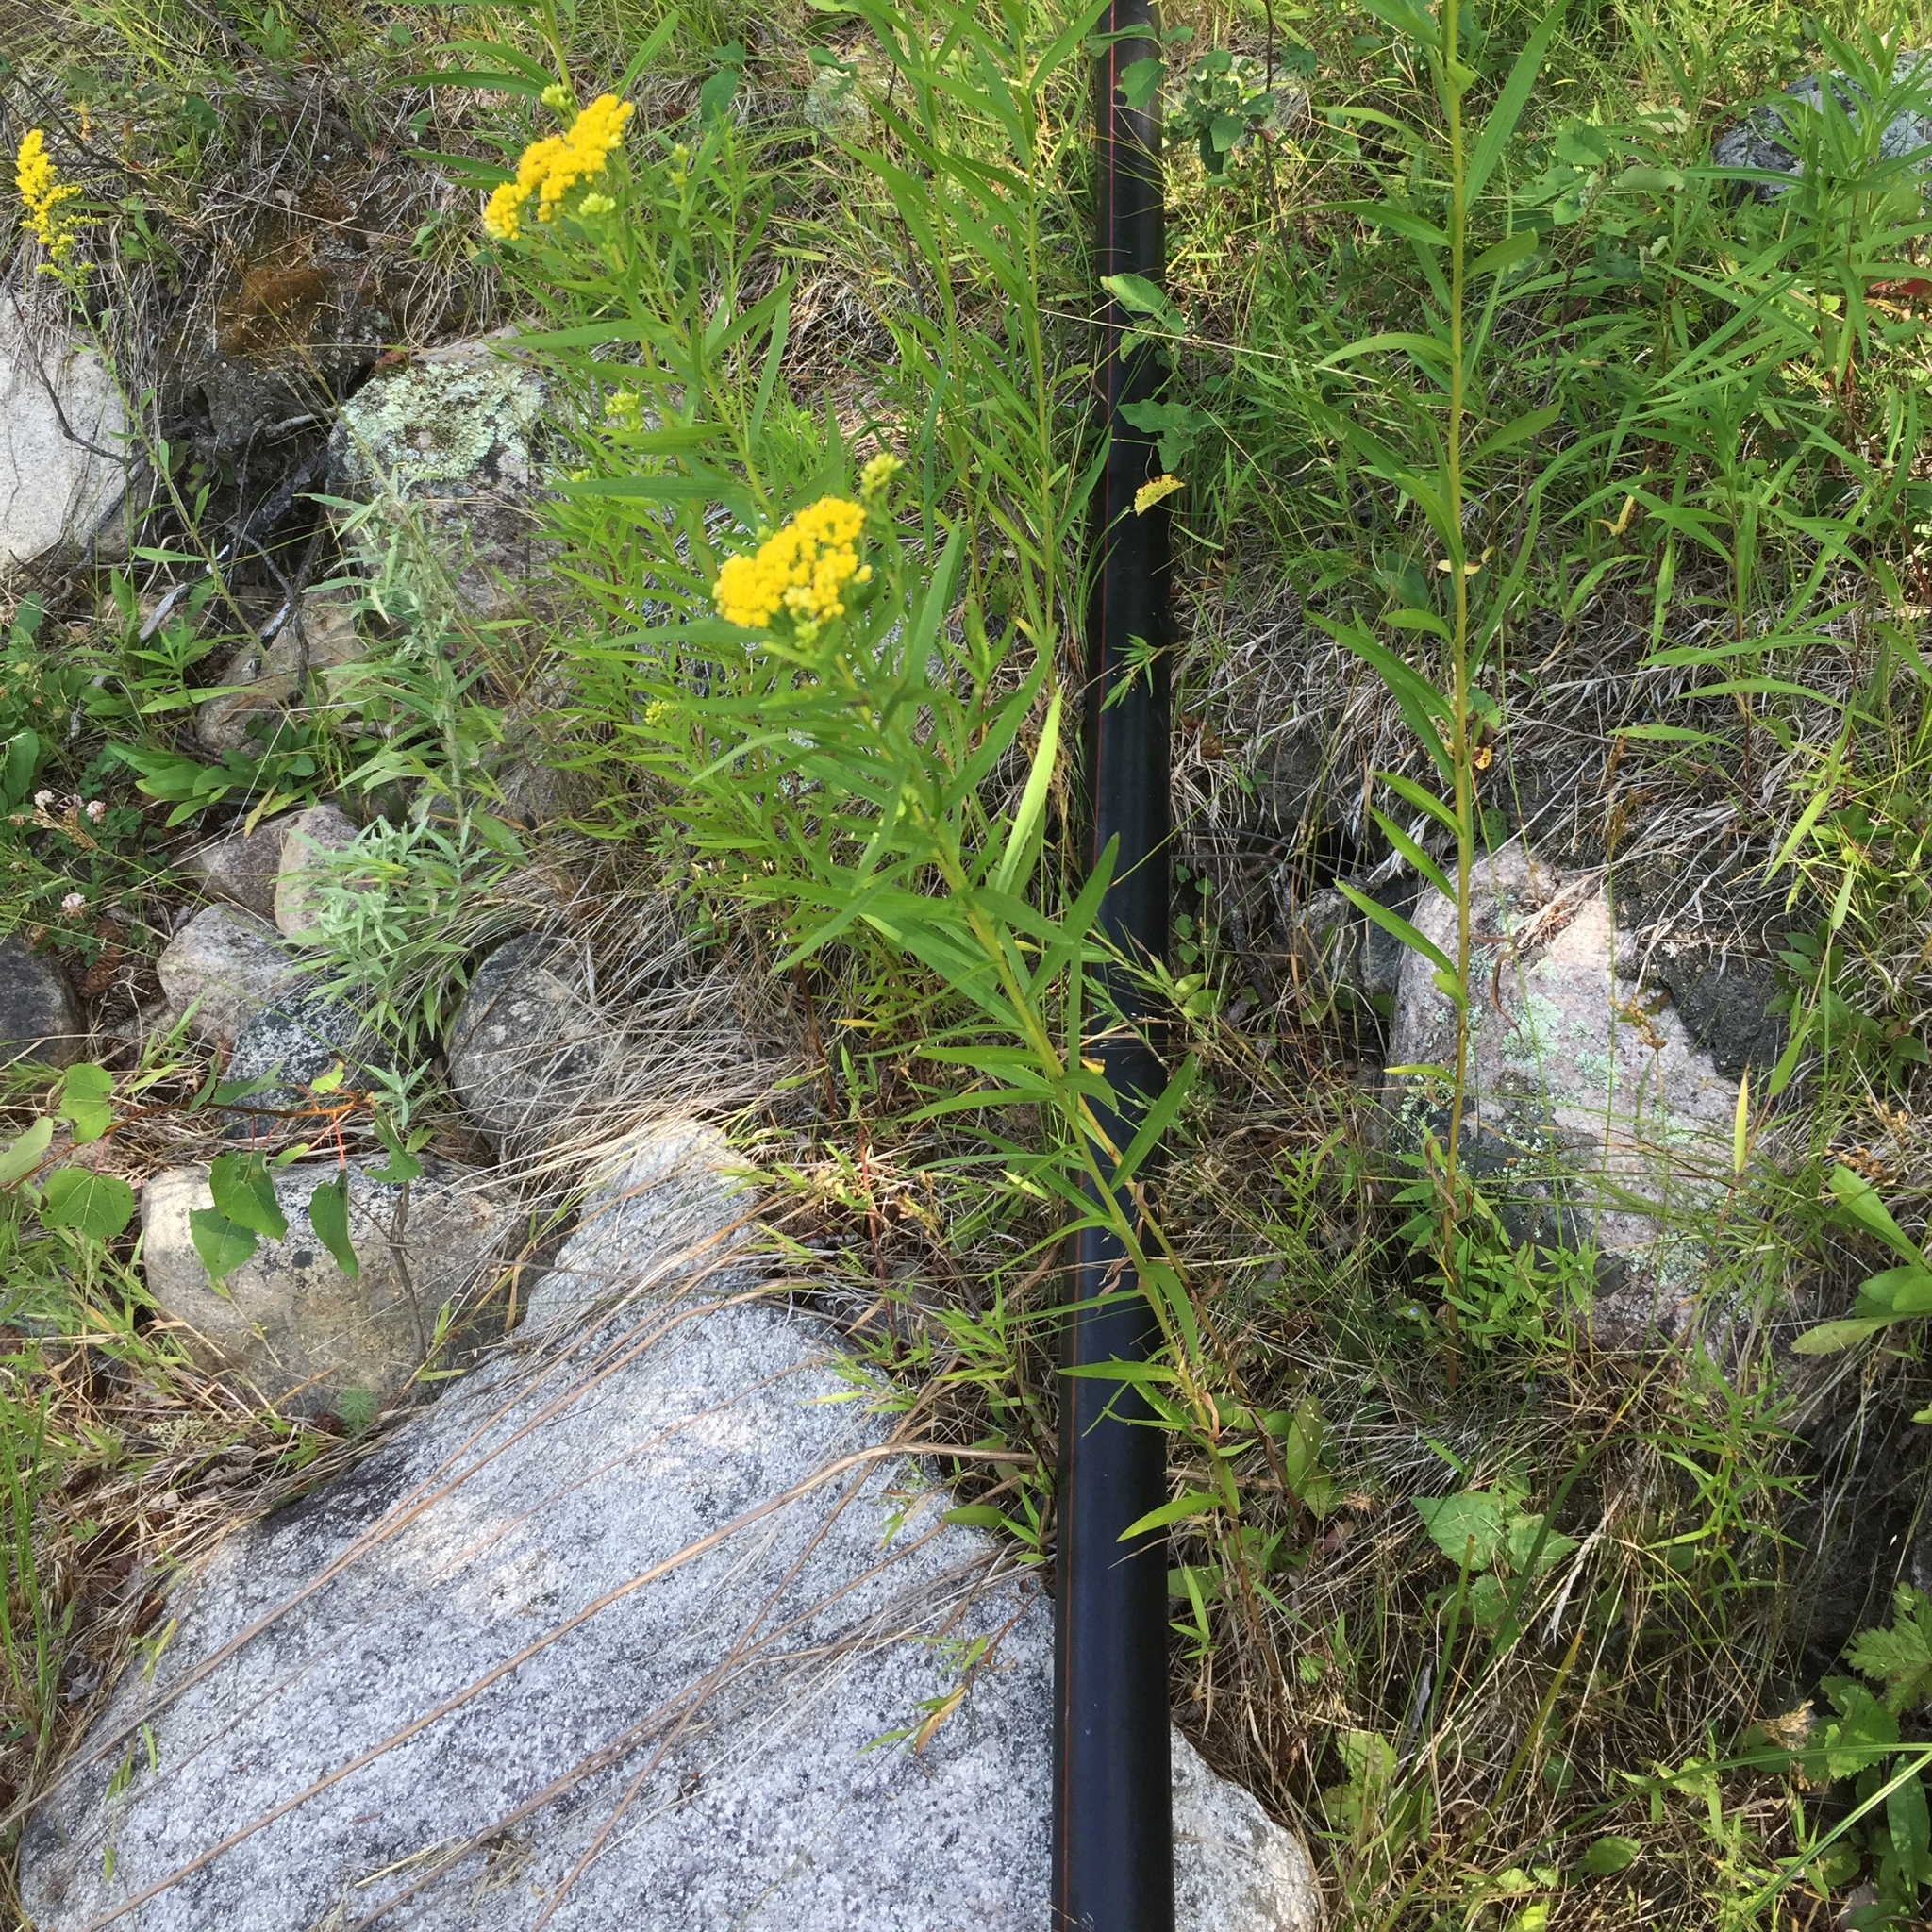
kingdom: Plantae
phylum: Tracheophyta
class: Magnoliopsida
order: Asterales
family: Asteraceae
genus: Euthamia
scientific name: Euthamia graminifolia
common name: Common goldentop
